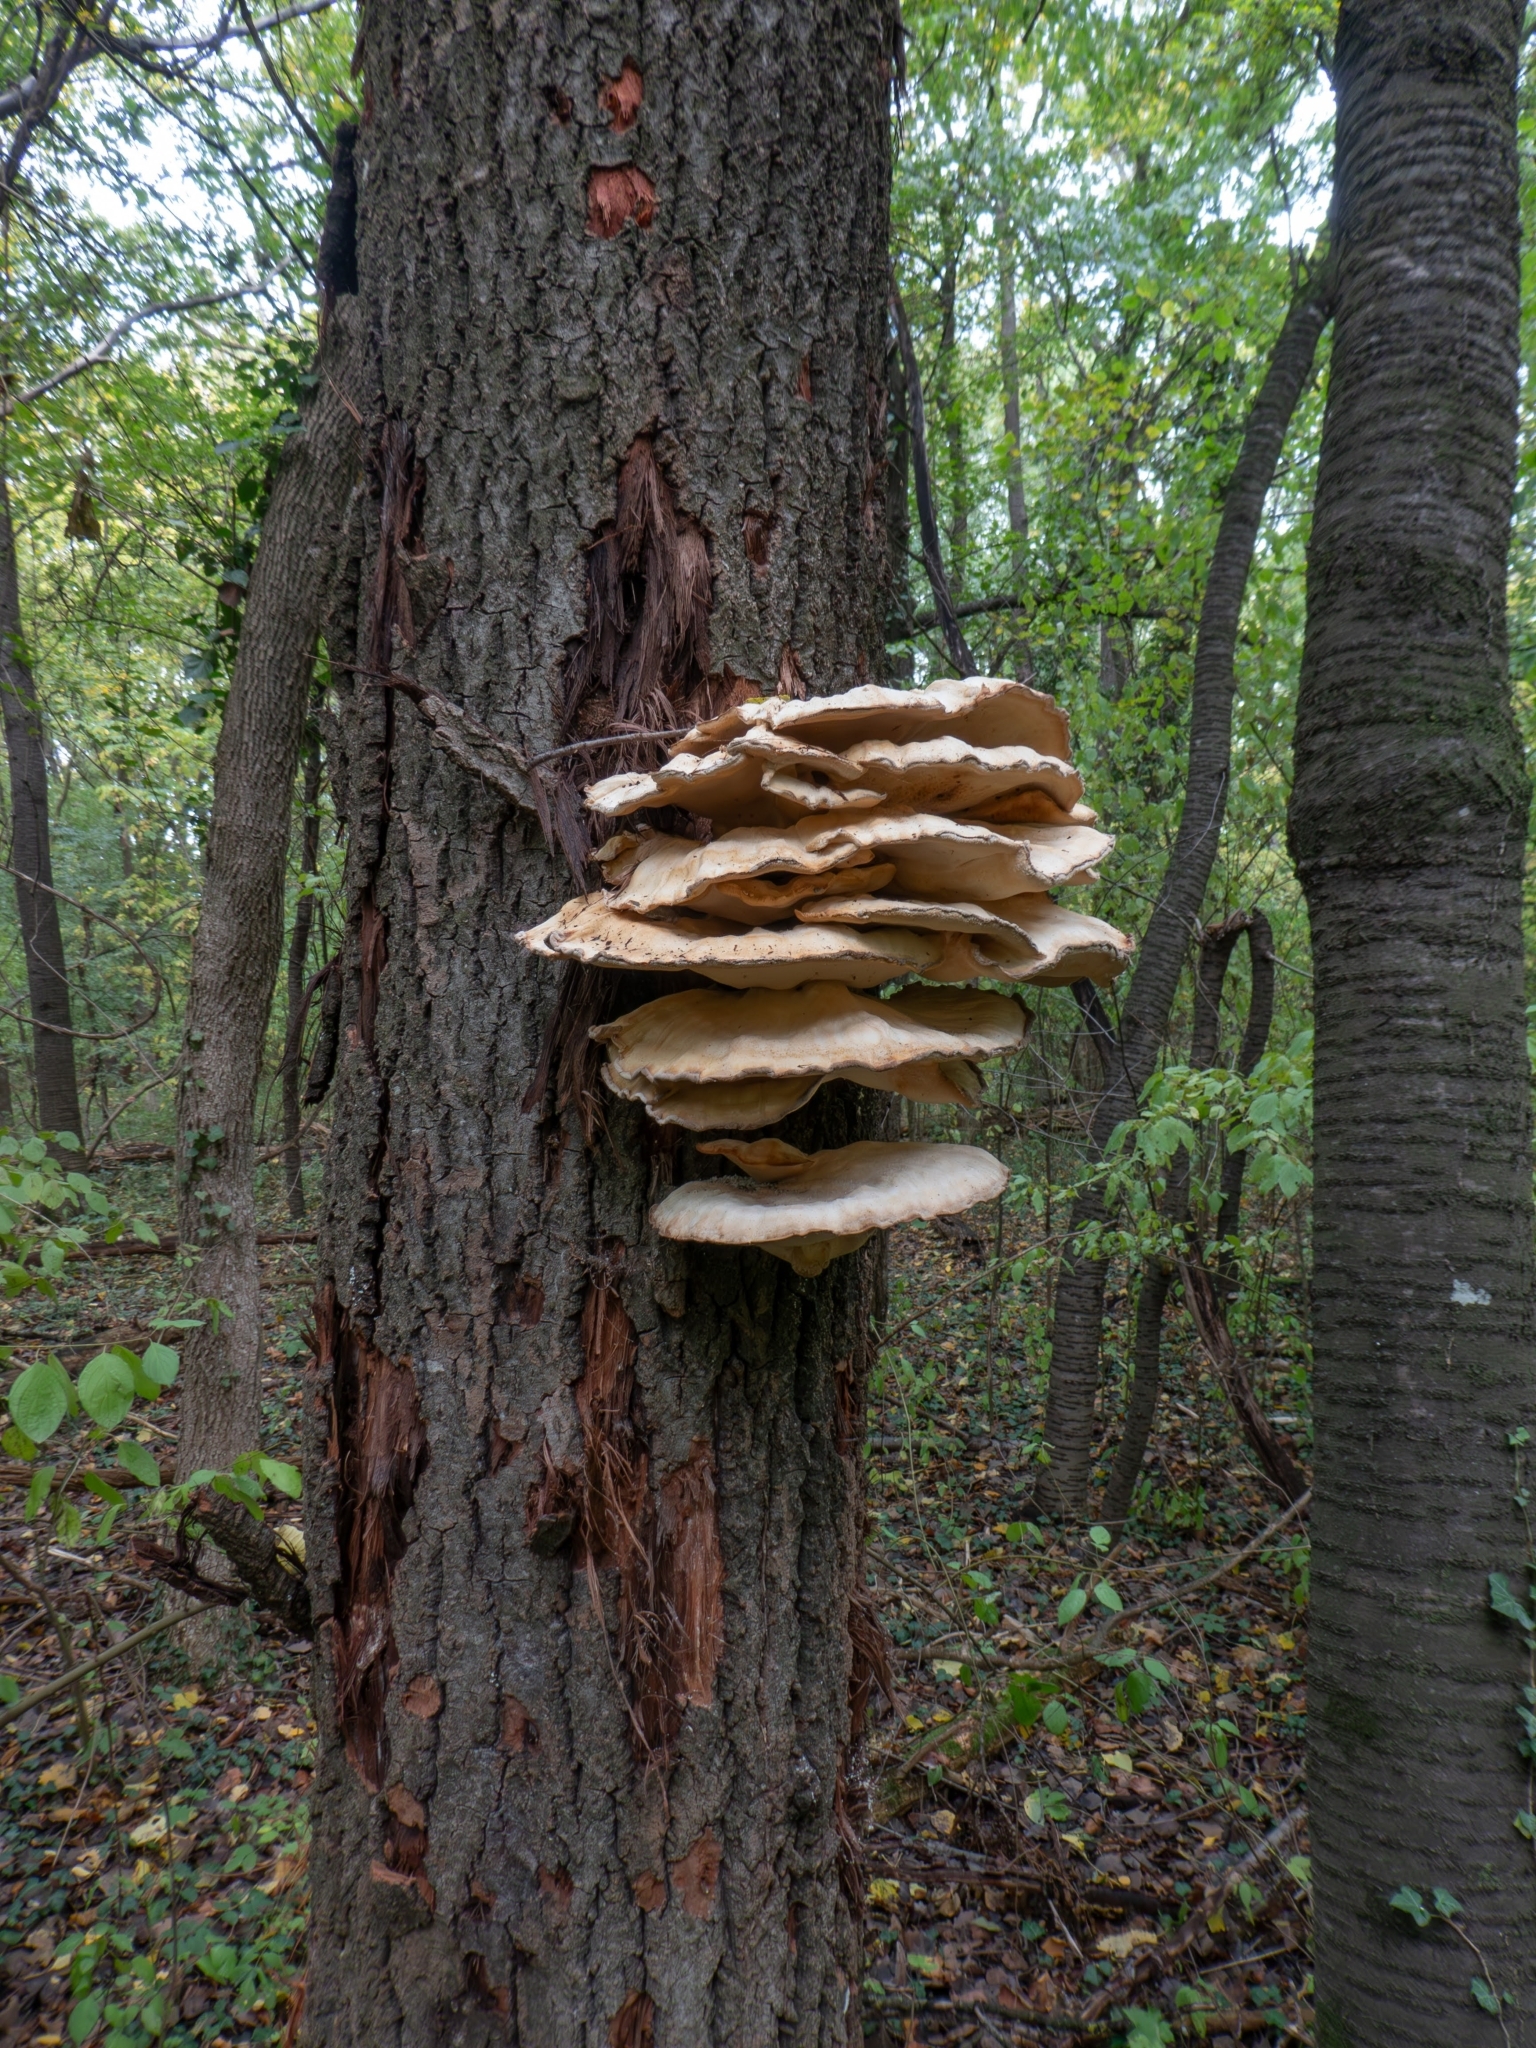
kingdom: Fungi
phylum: Basidiomycota
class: Agaricomycetes
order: Polyporales
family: Laetiporaceae
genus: Laetiporus
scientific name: Laetiporus sulphureus
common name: Chicken of the woods
